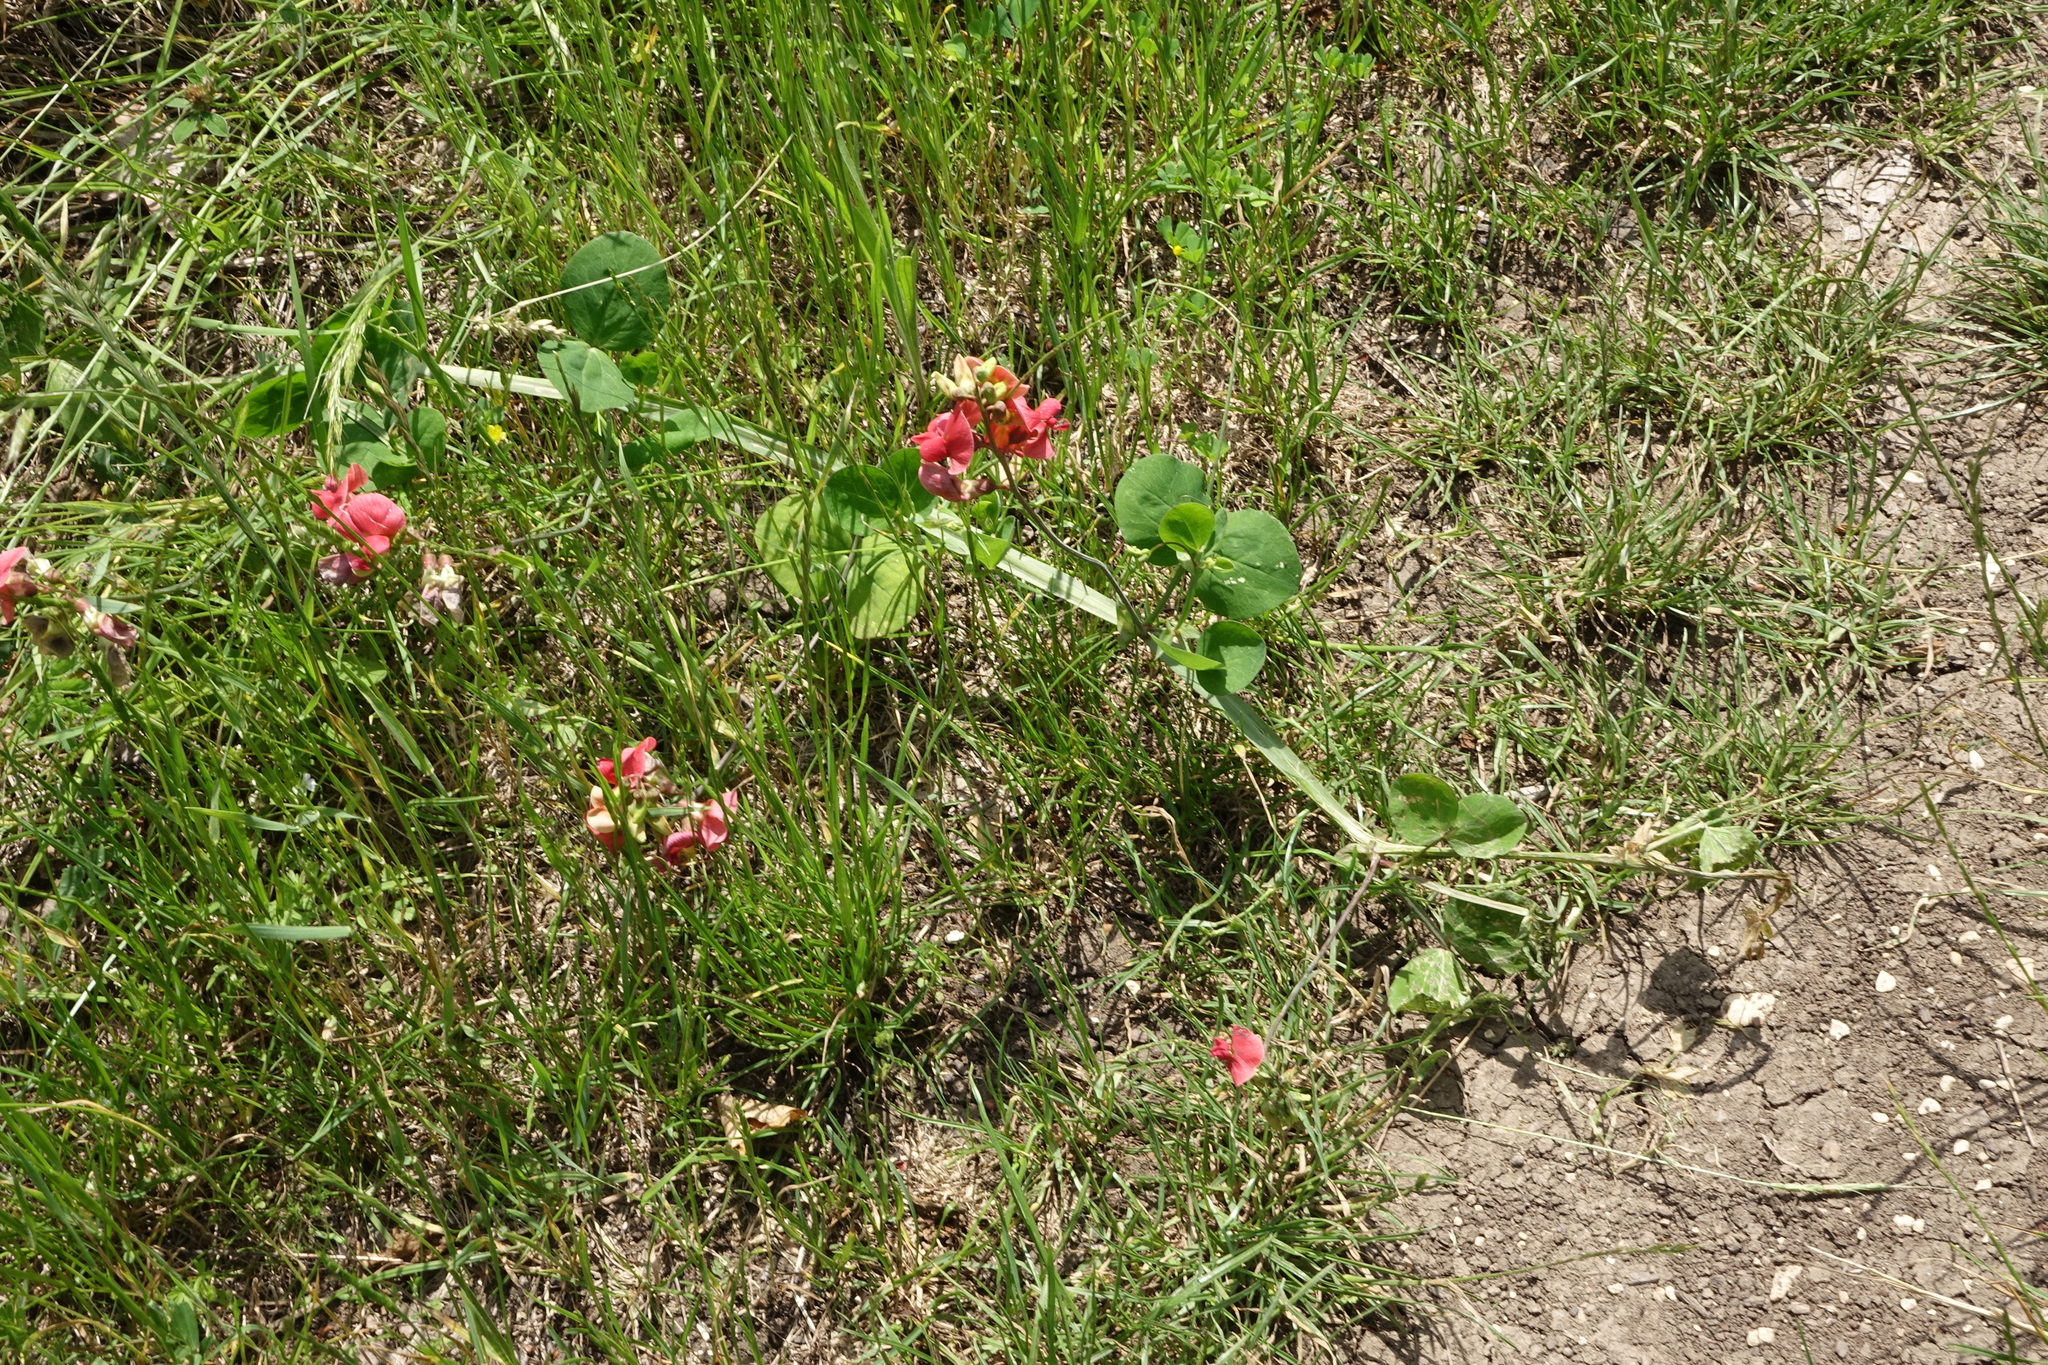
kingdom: Plantae
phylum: Tracheophyta
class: Magnoliopsida
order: Fabales
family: Fabaceae
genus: Lathyrus
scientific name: Lathyrus miniatus
